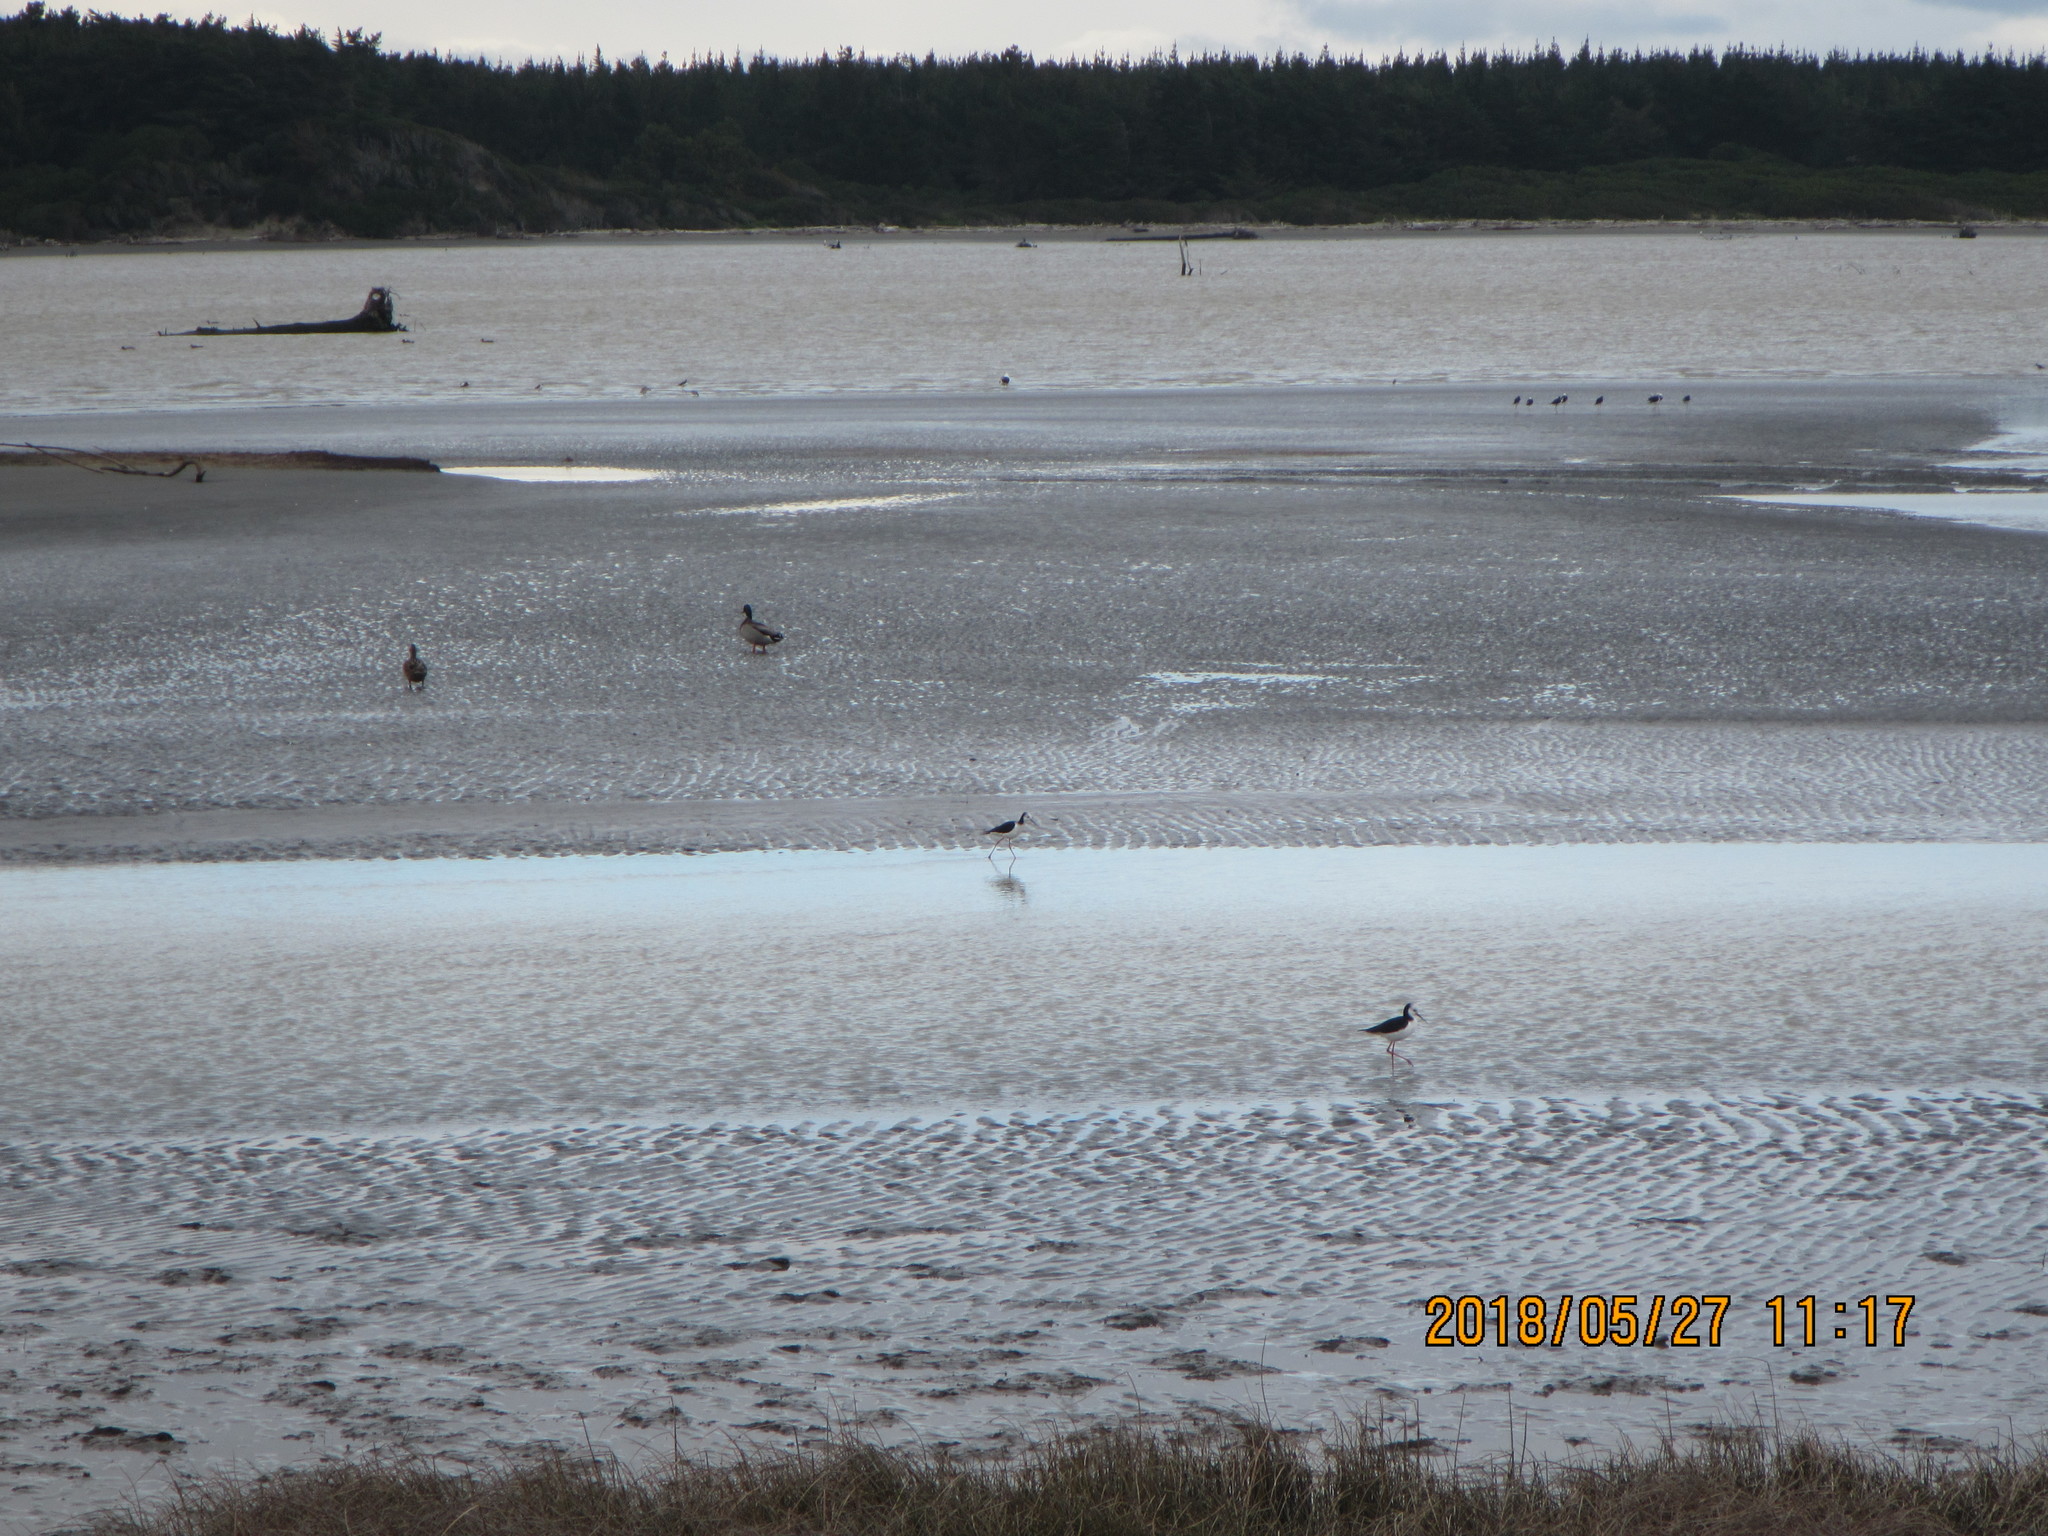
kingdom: Animalia
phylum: Chordata
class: Aves
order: Charadriiformes
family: Recurvirostridae
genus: Himantopus
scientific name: Himantopus leucocephalus
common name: White-headed stilt
